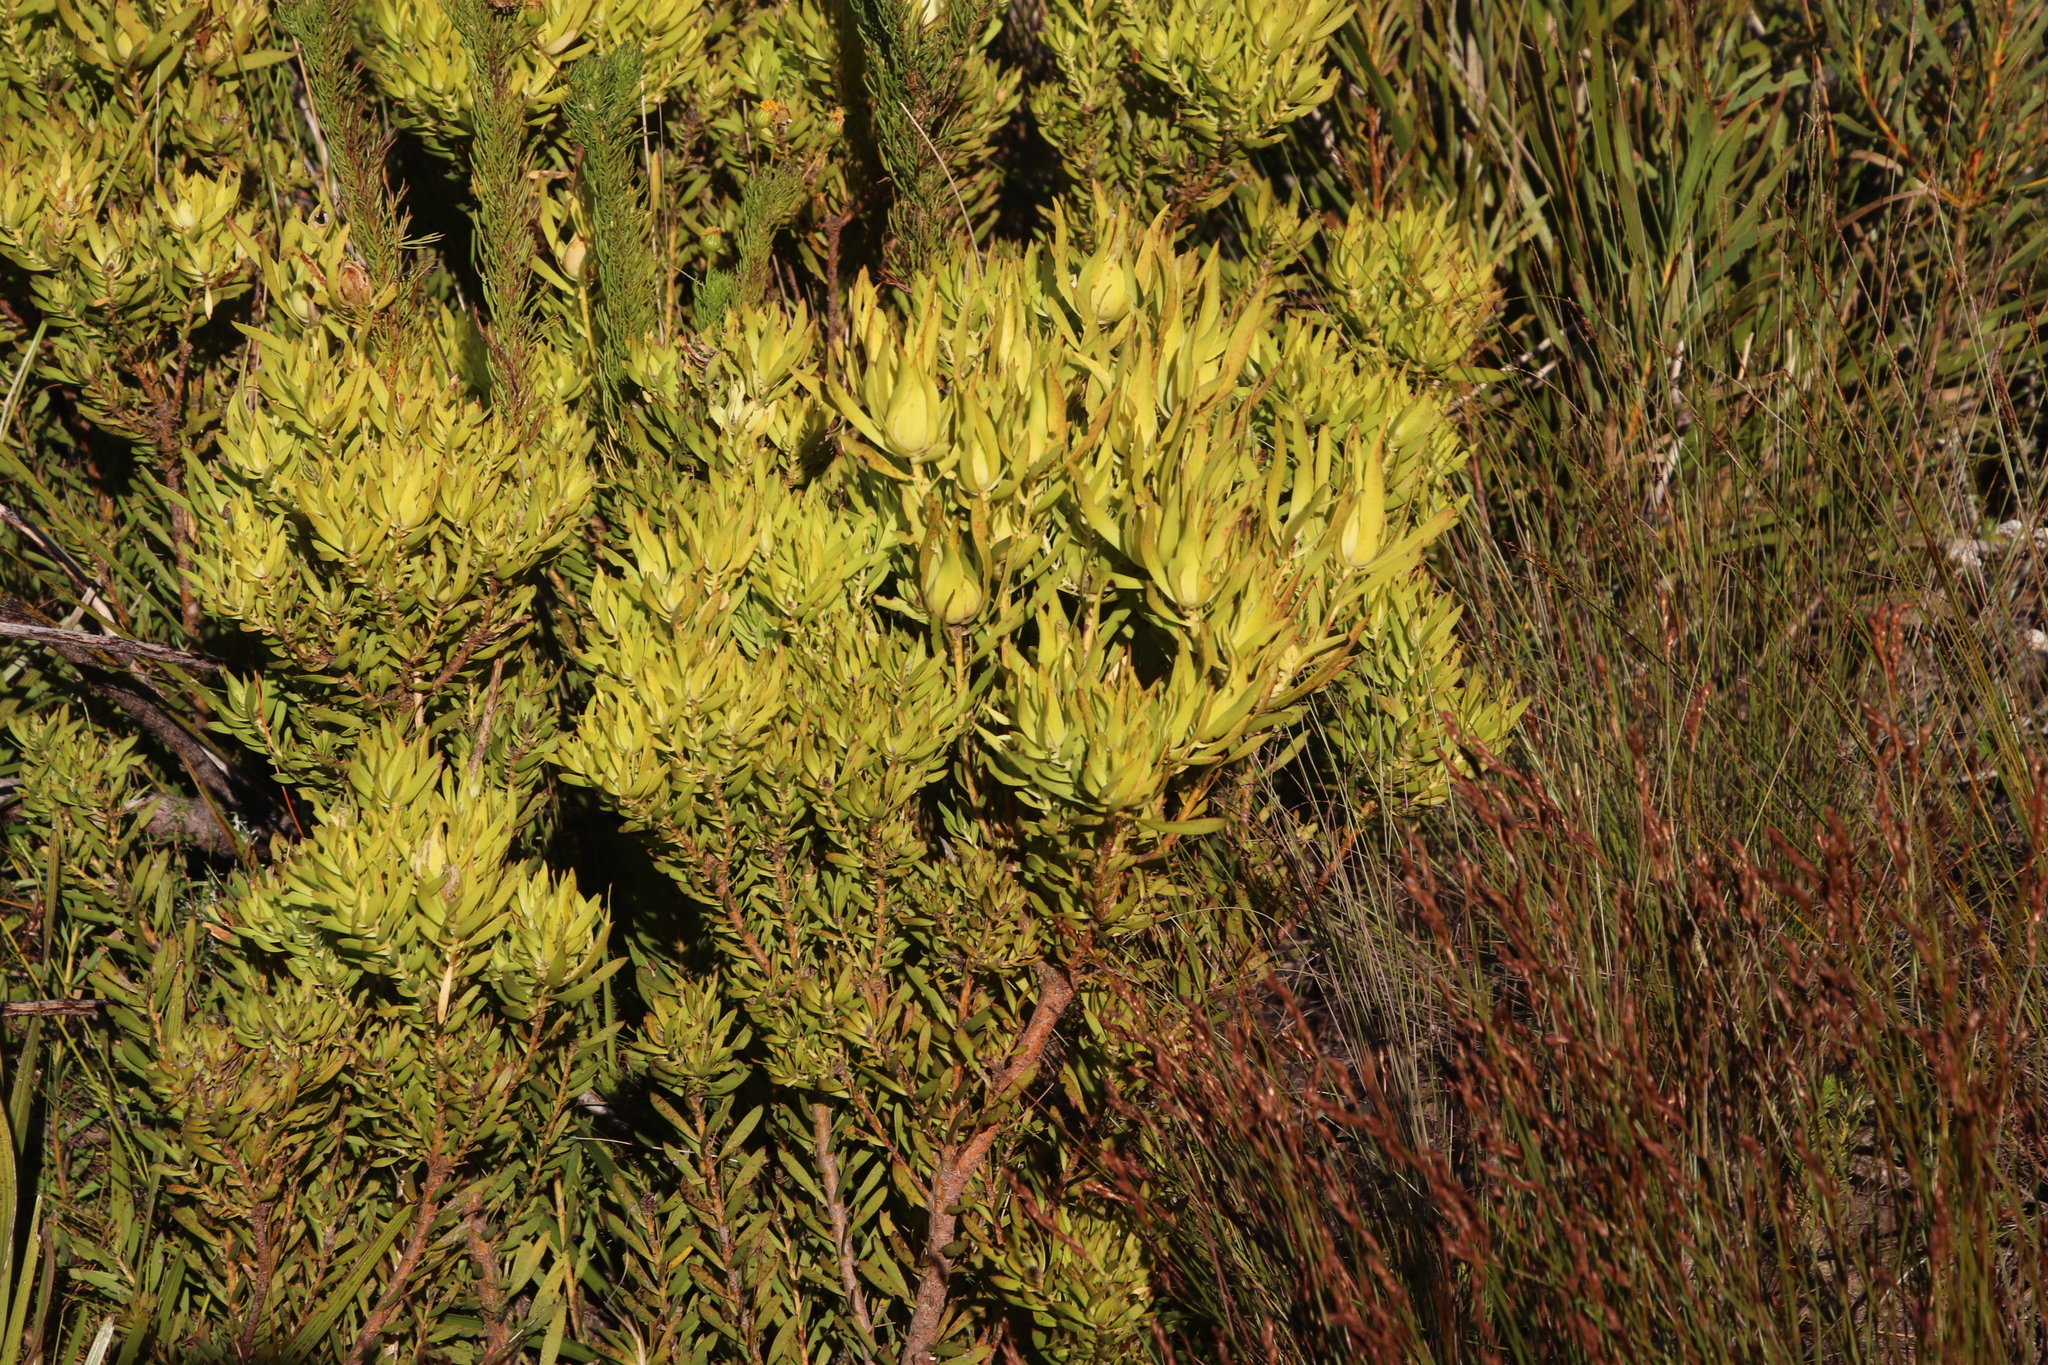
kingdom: Plantae
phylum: Tracheophyta
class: Magnoliopsida
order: Proteales
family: Proteaceae
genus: Leucadendron
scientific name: Leucadendron salignum
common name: Common sunshine conebush
